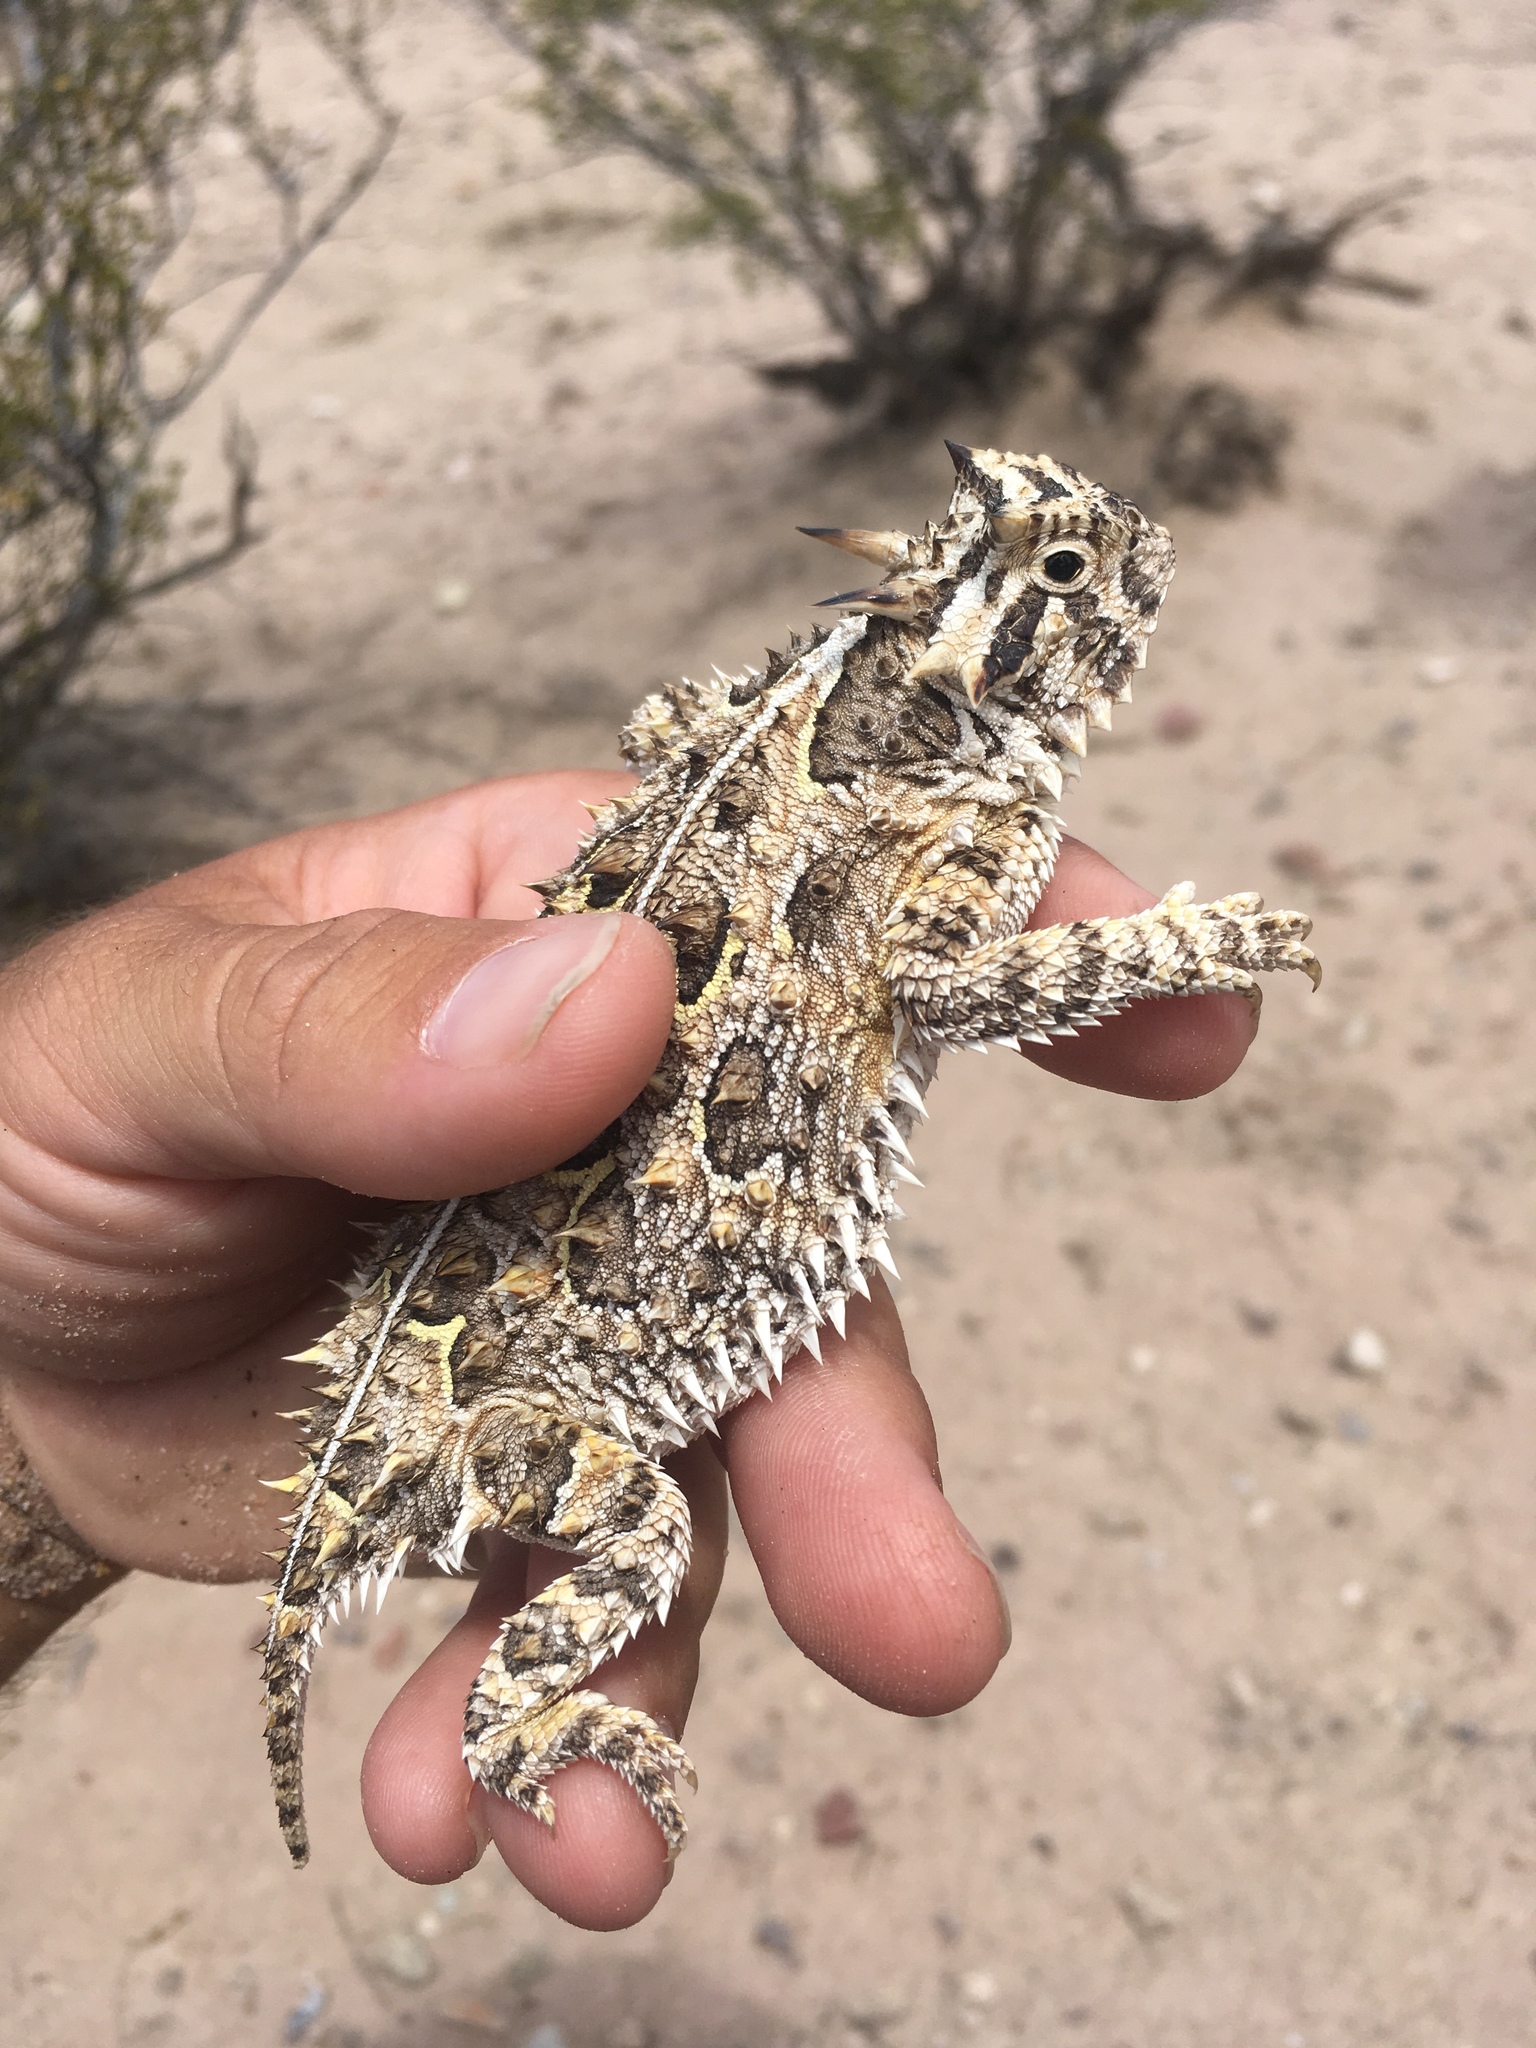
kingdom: Animalia
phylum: Chordata
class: Squamata
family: Phrynosomatidae
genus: Phrynosoma
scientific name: Phrynosoma cornutum
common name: Texas horned lizard
